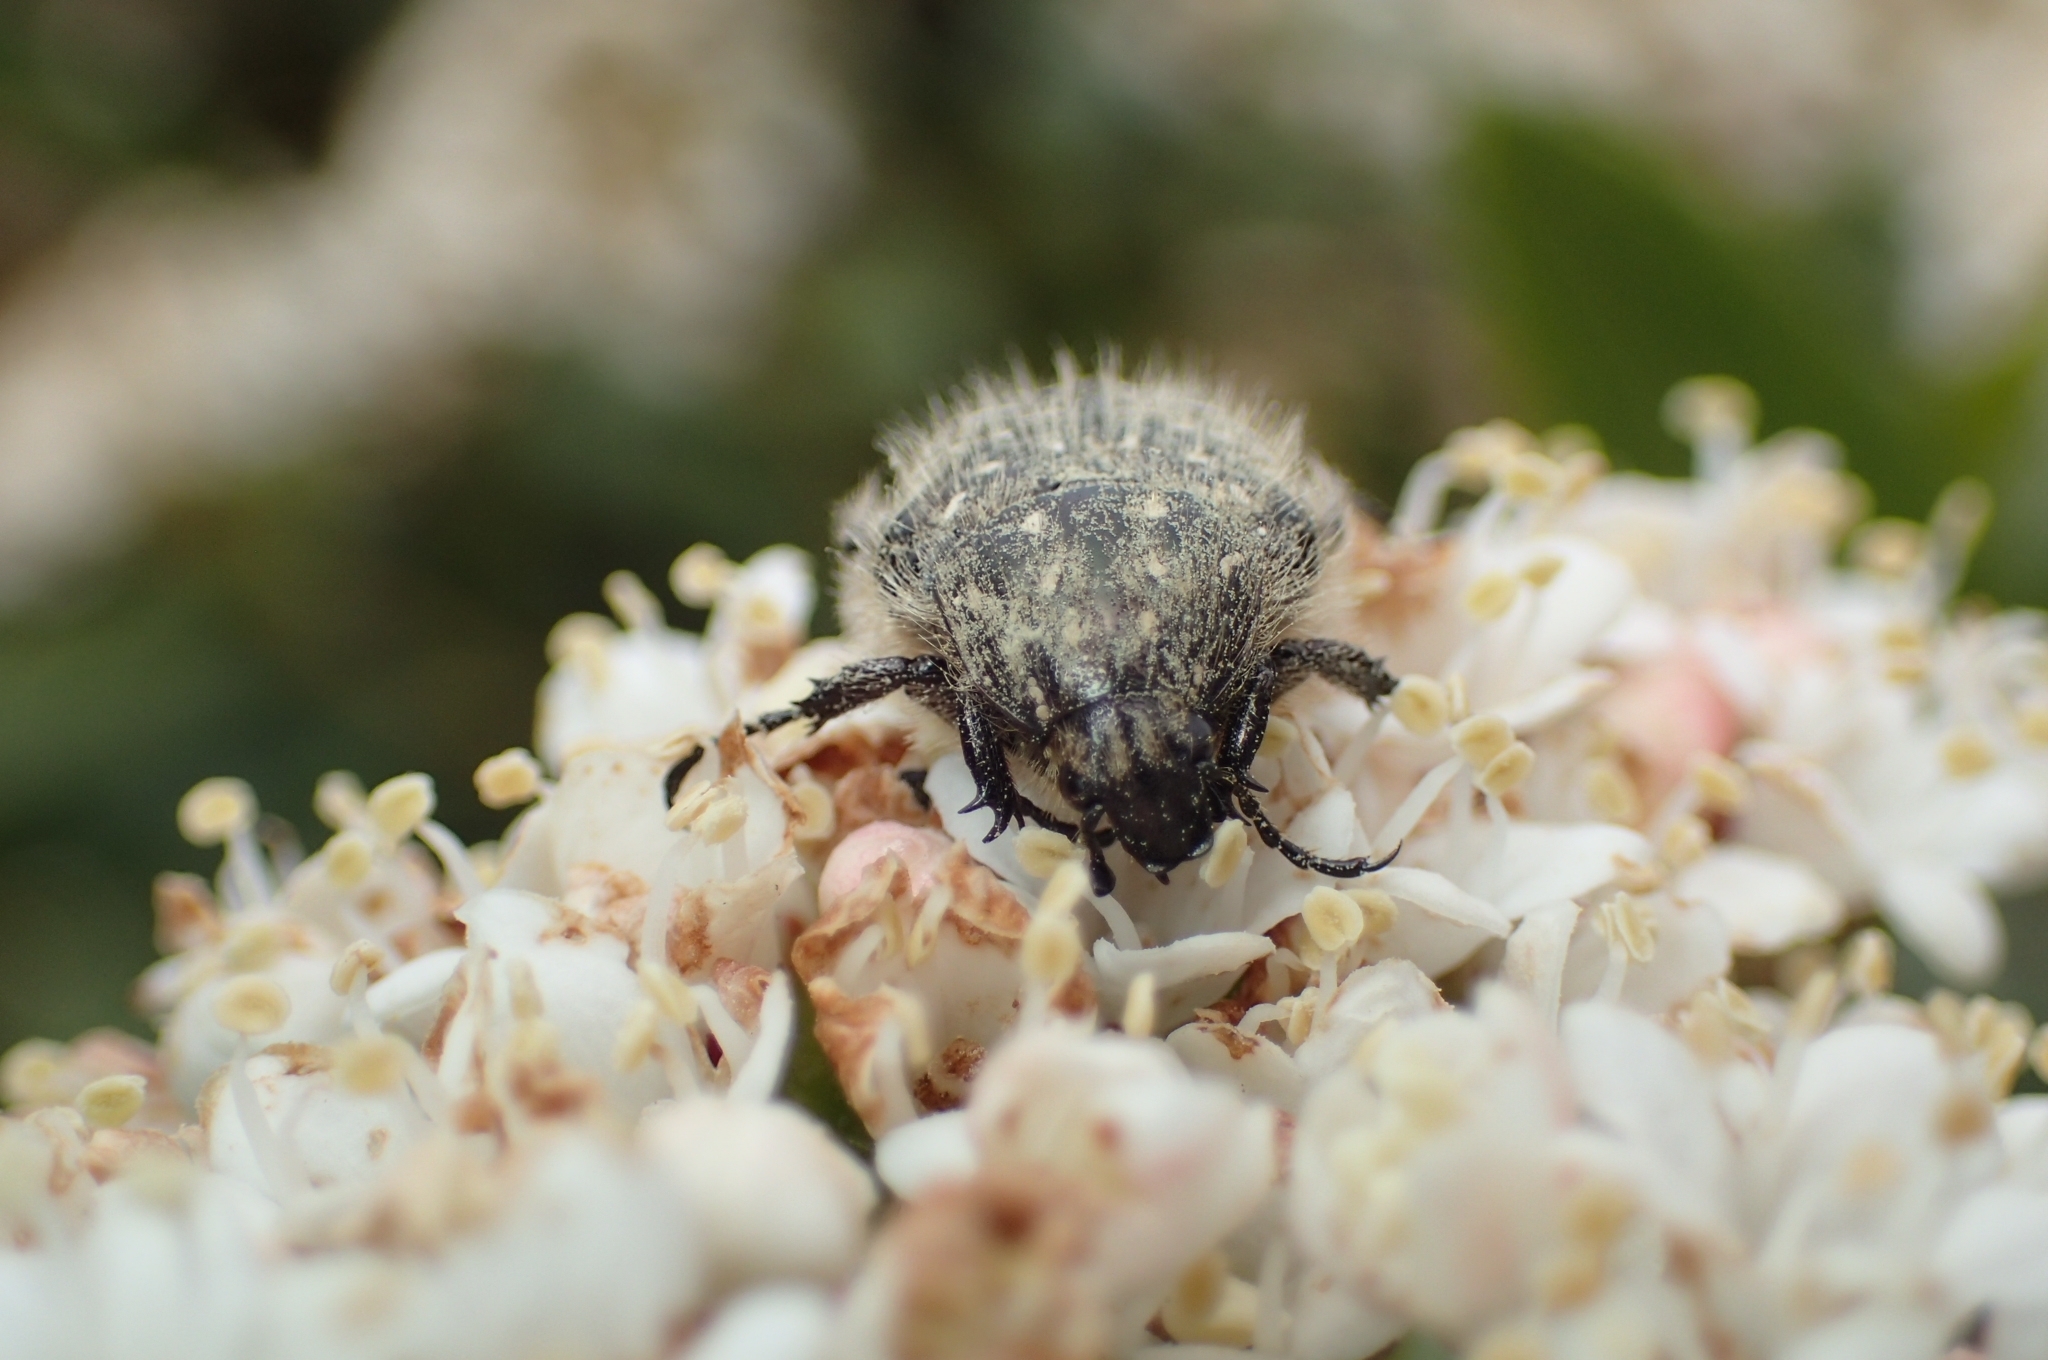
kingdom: Animalia
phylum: Arthropoda
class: Insecta
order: Coleoptera
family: Scarabaeidae
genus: Oxythyrea
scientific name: Oxythyrea funesta
